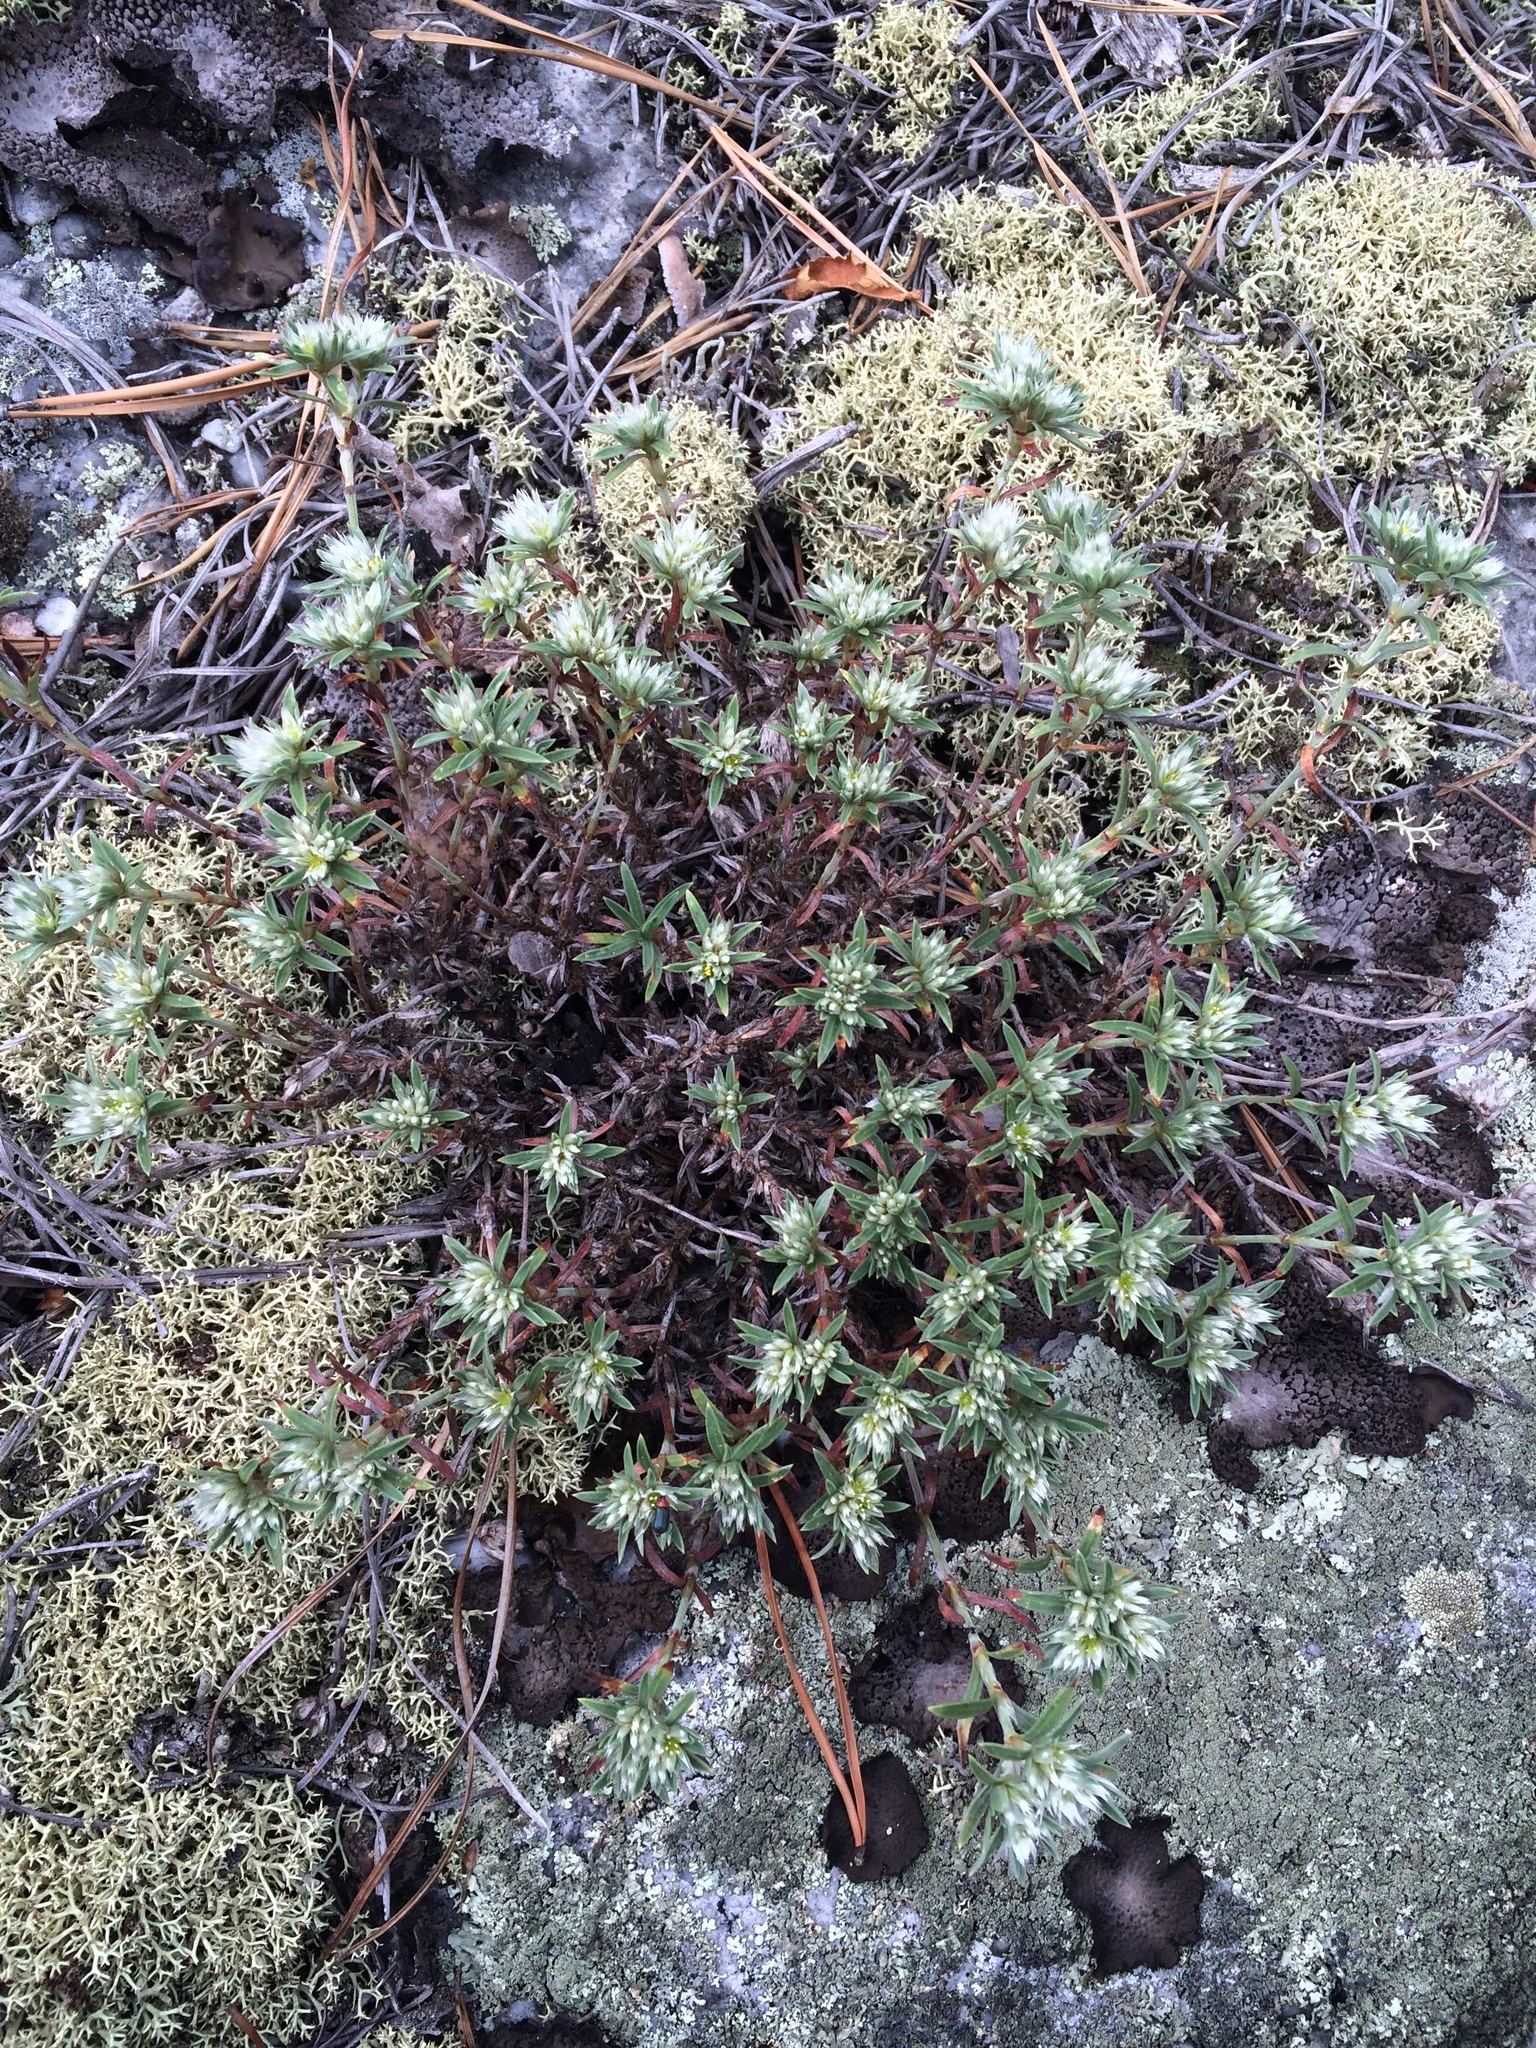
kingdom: Plantae
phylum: Tracheophyta
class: Magnoliopsida
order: Caryophyllales
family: Caryophyllaceae
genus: Paronychia
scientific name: Paronychia argyrocoma
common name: Silverling
